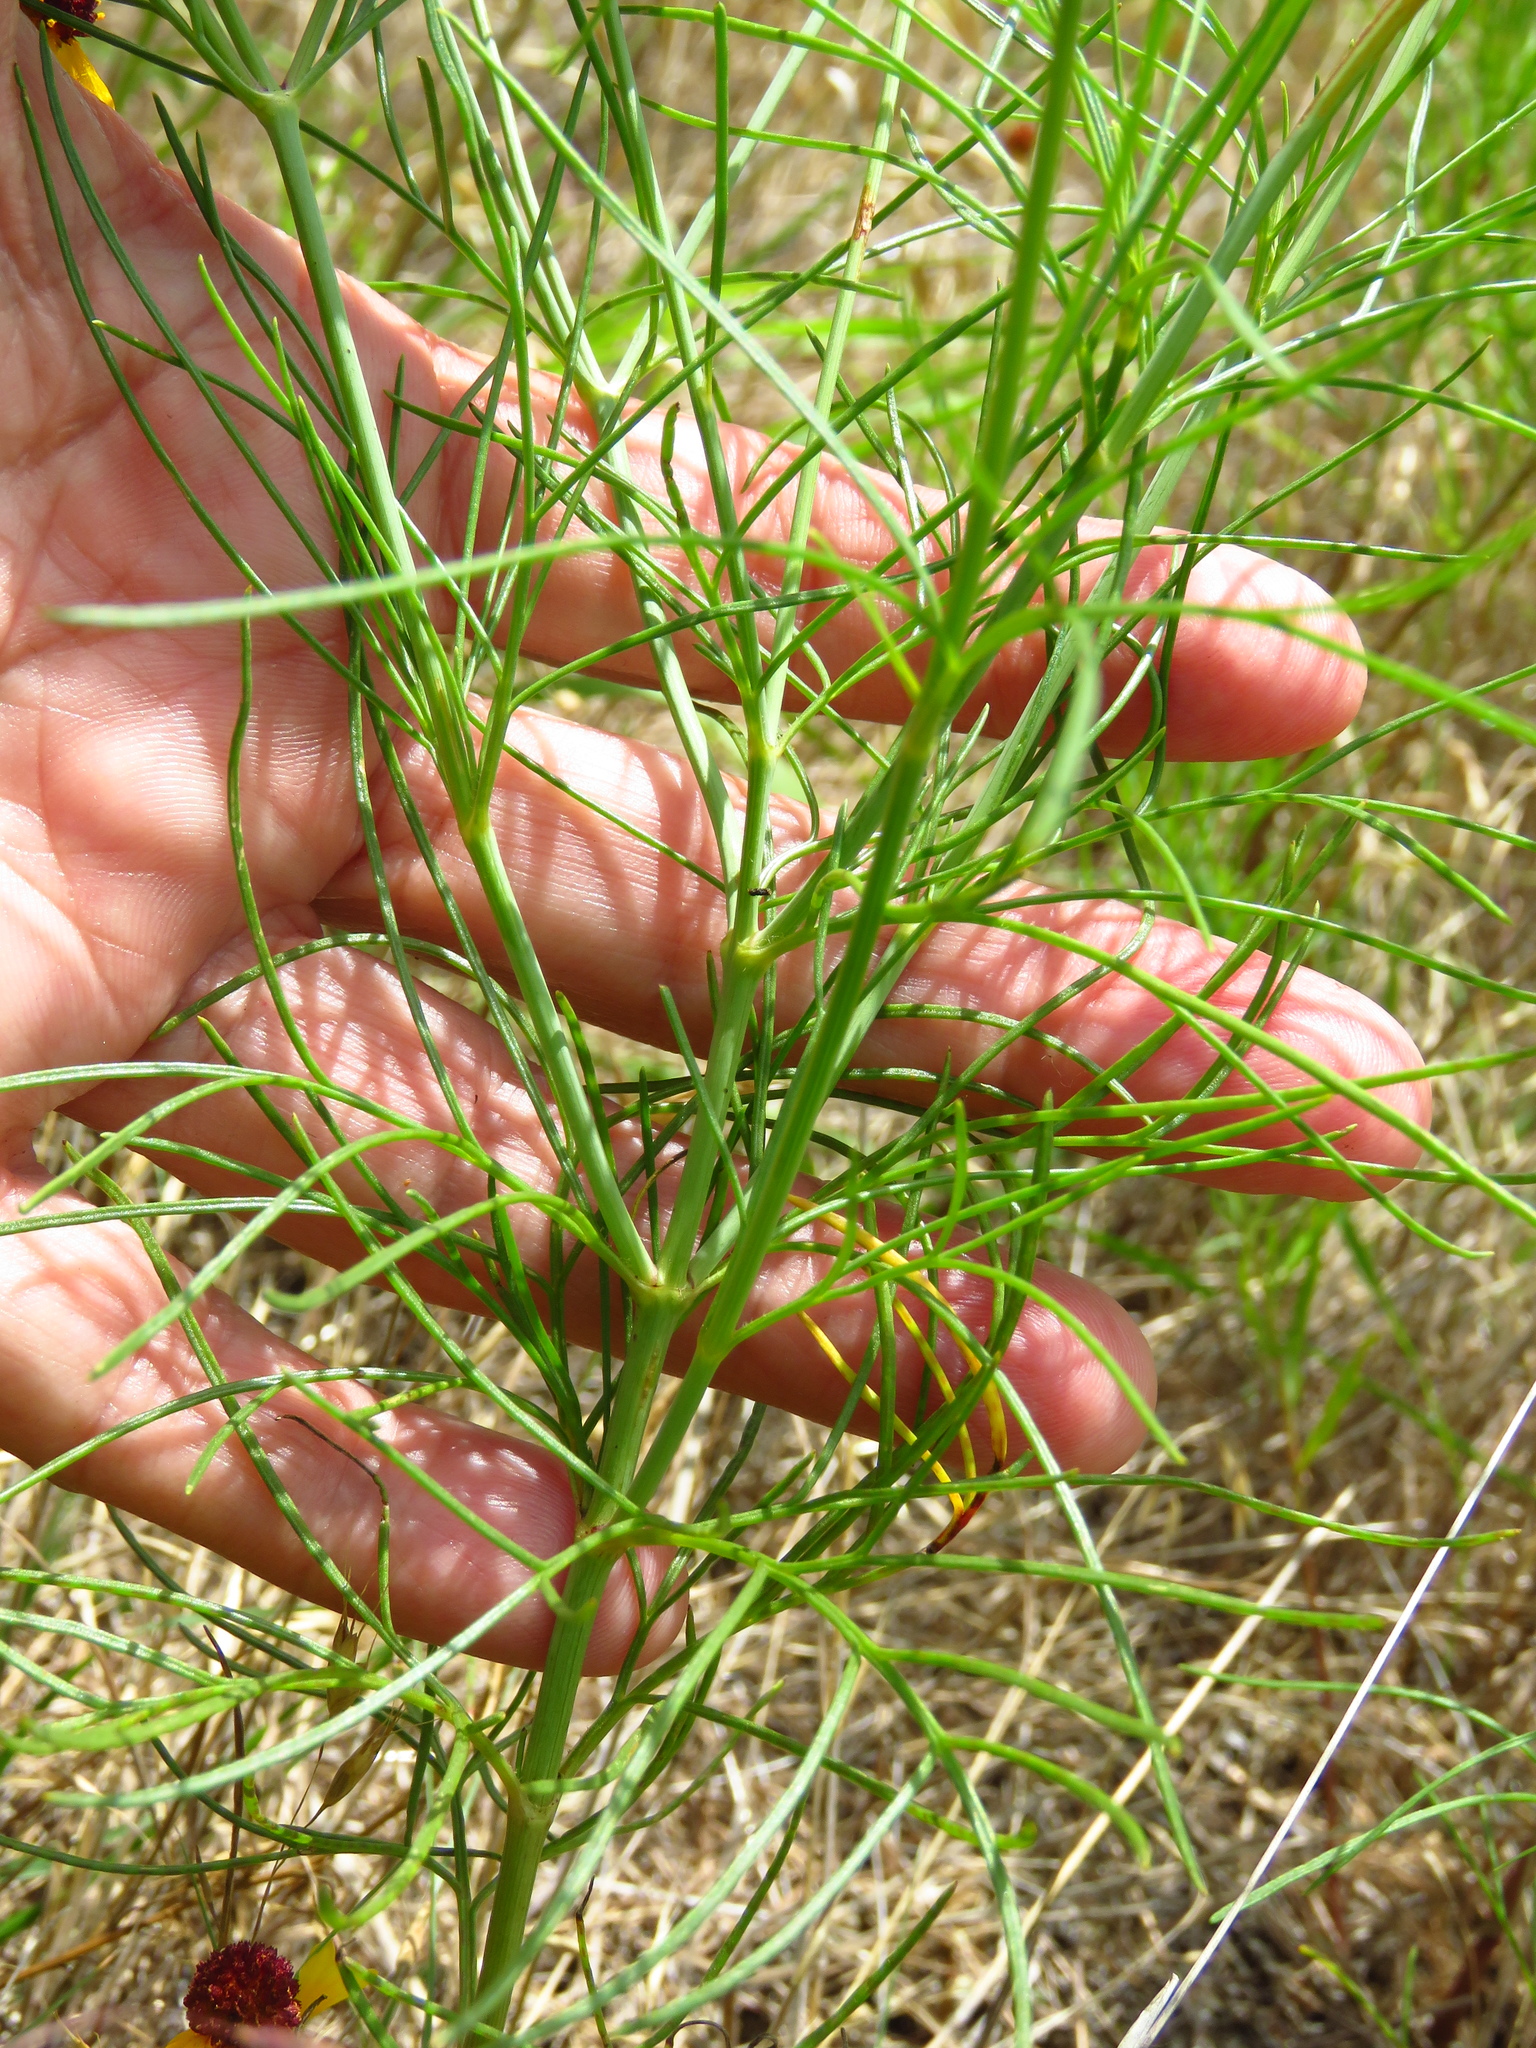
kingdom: Plantae
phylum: Tracheophyta
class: Magnoliopsida
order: Asterales
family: Asteraceae
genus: Helenium
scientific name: Helenium amarum
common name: Bitter sneezeweed
